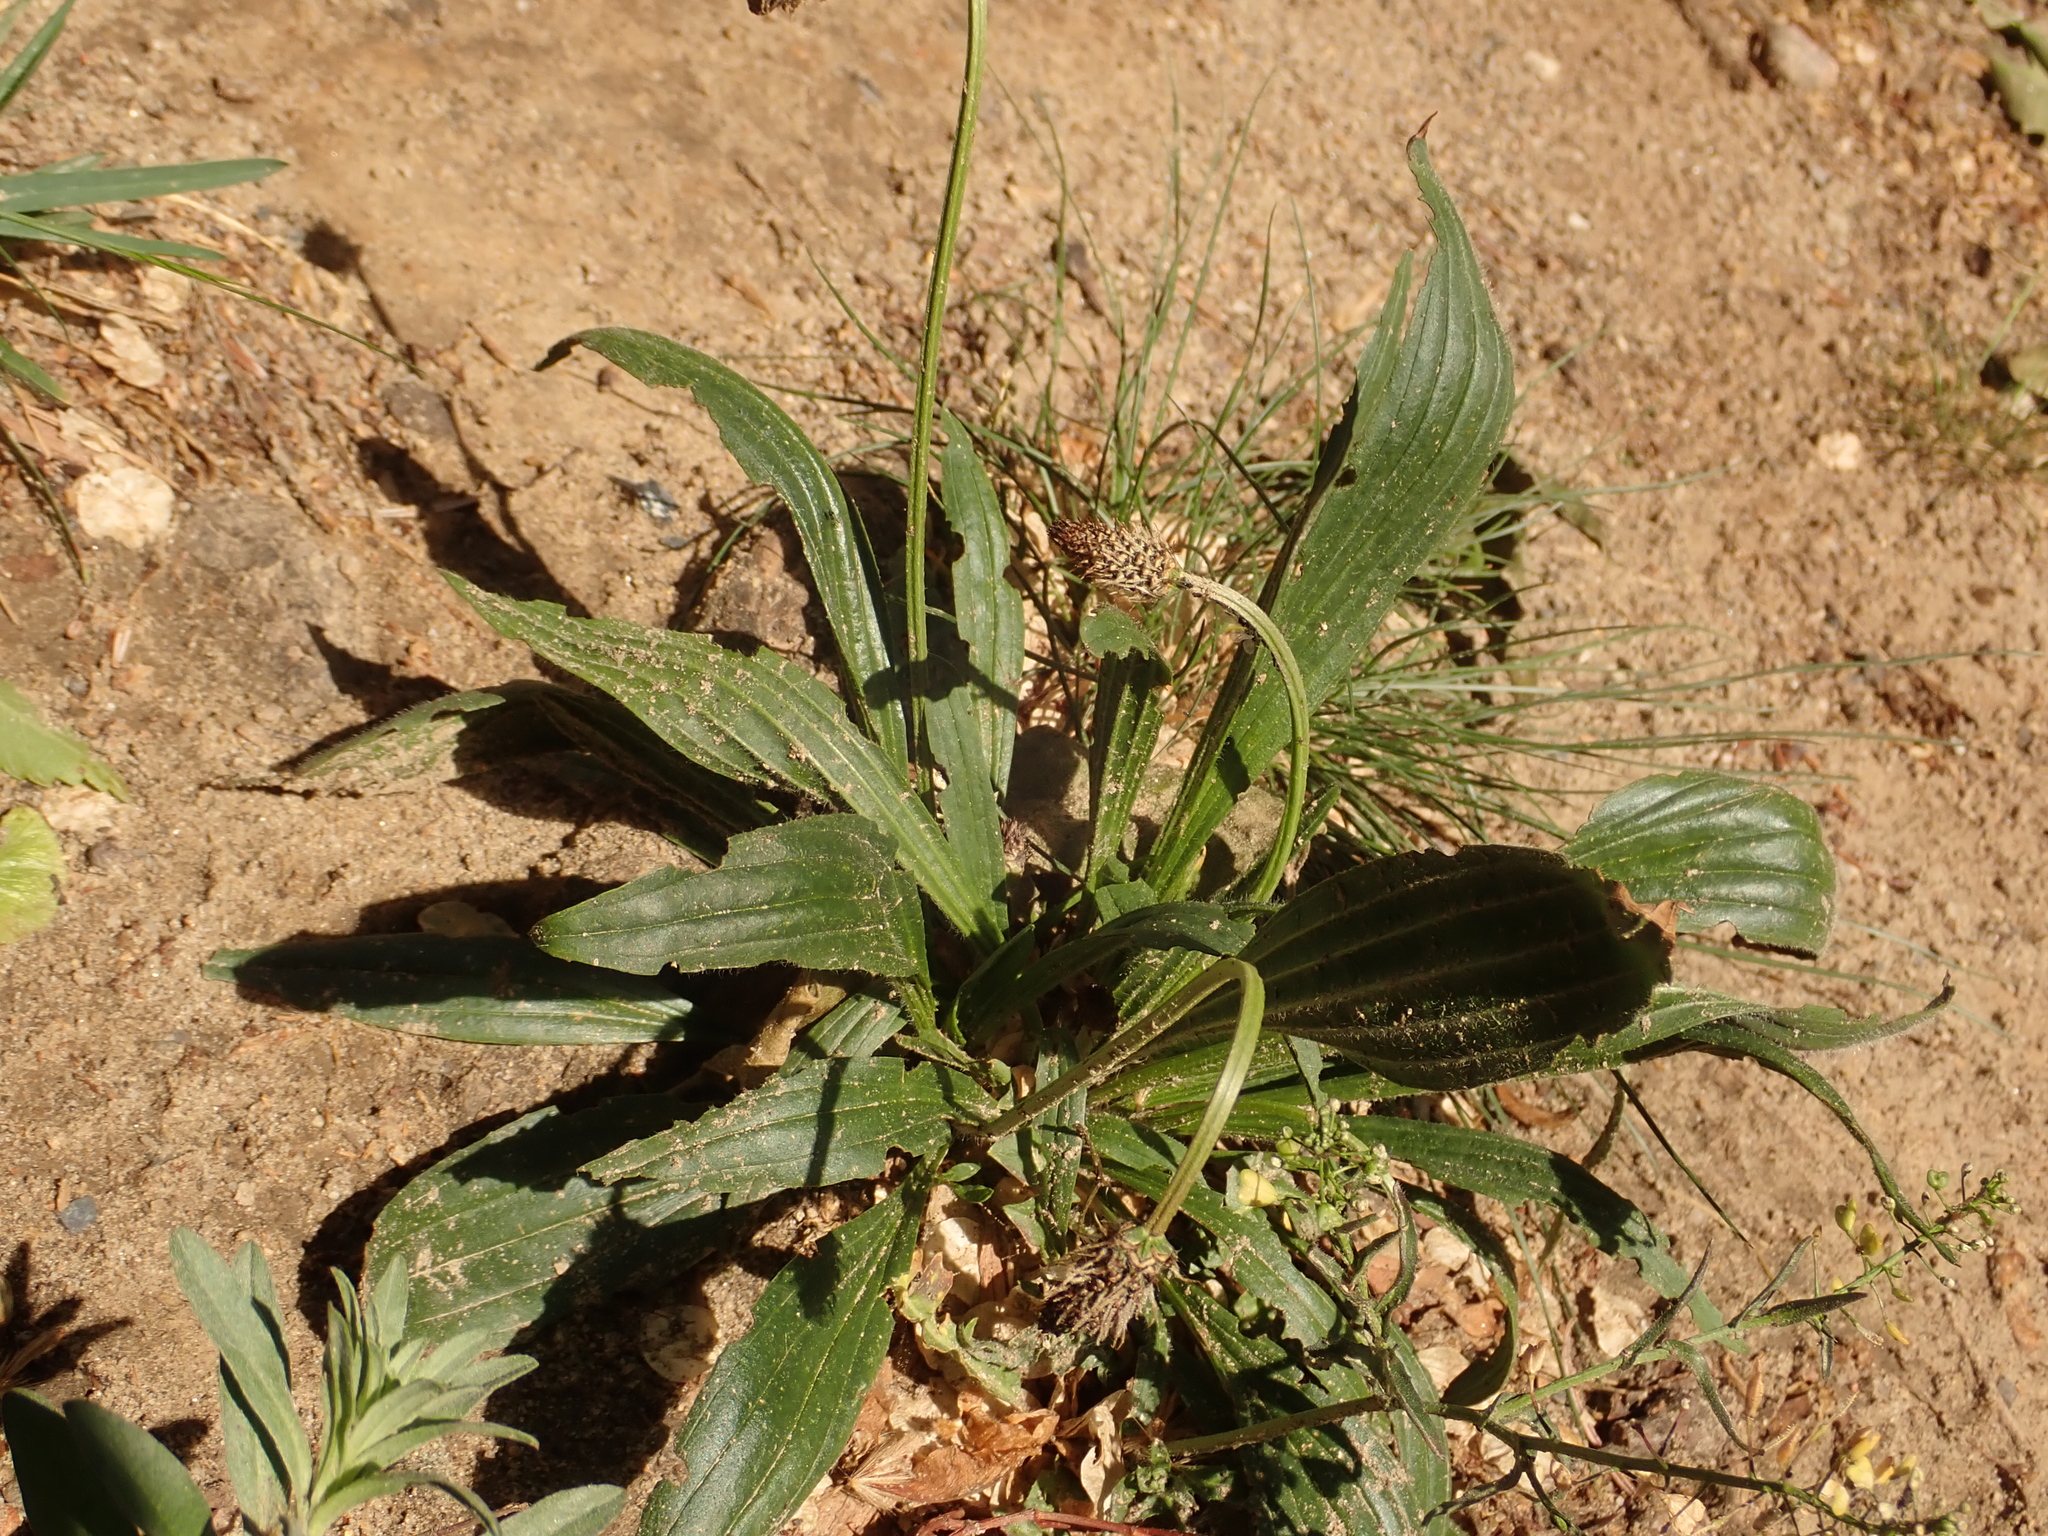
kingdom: Plantae
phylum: Tracheophyta
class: Magnoliopsida
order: Lamiales
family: Plantaginaceae
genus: Plantago
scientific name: Plantago lanceolata
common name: Ribwort plantain
